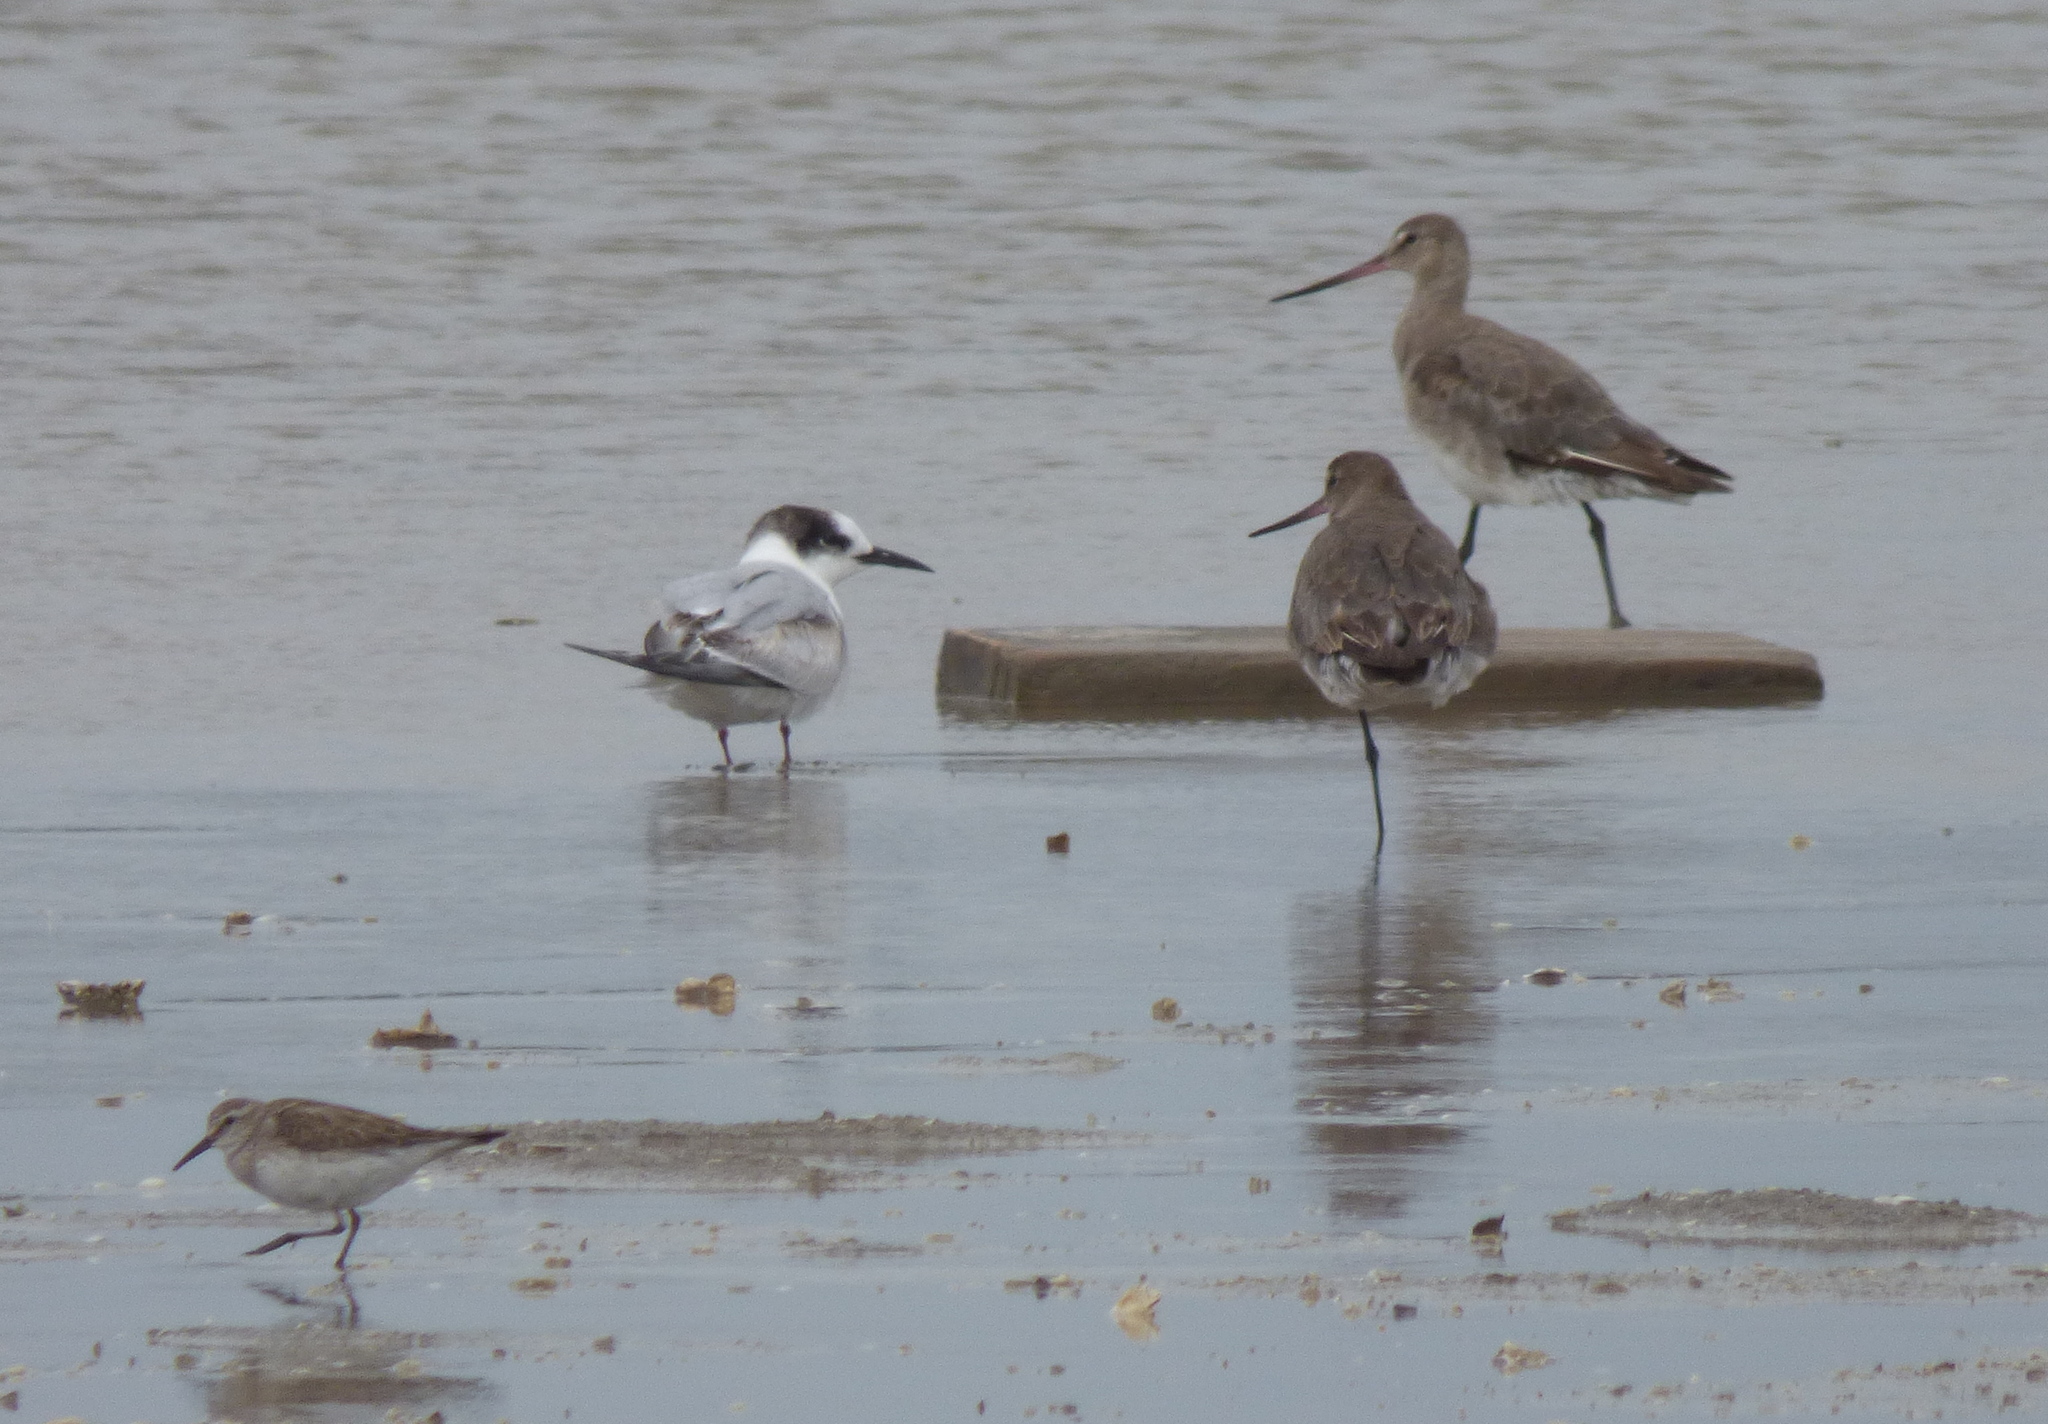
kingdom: Animalia
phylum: Chordata
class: Aves
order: Charadriiformes
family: Laridae
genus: Sterna
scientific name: Sterna hirundo
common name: Common tern
